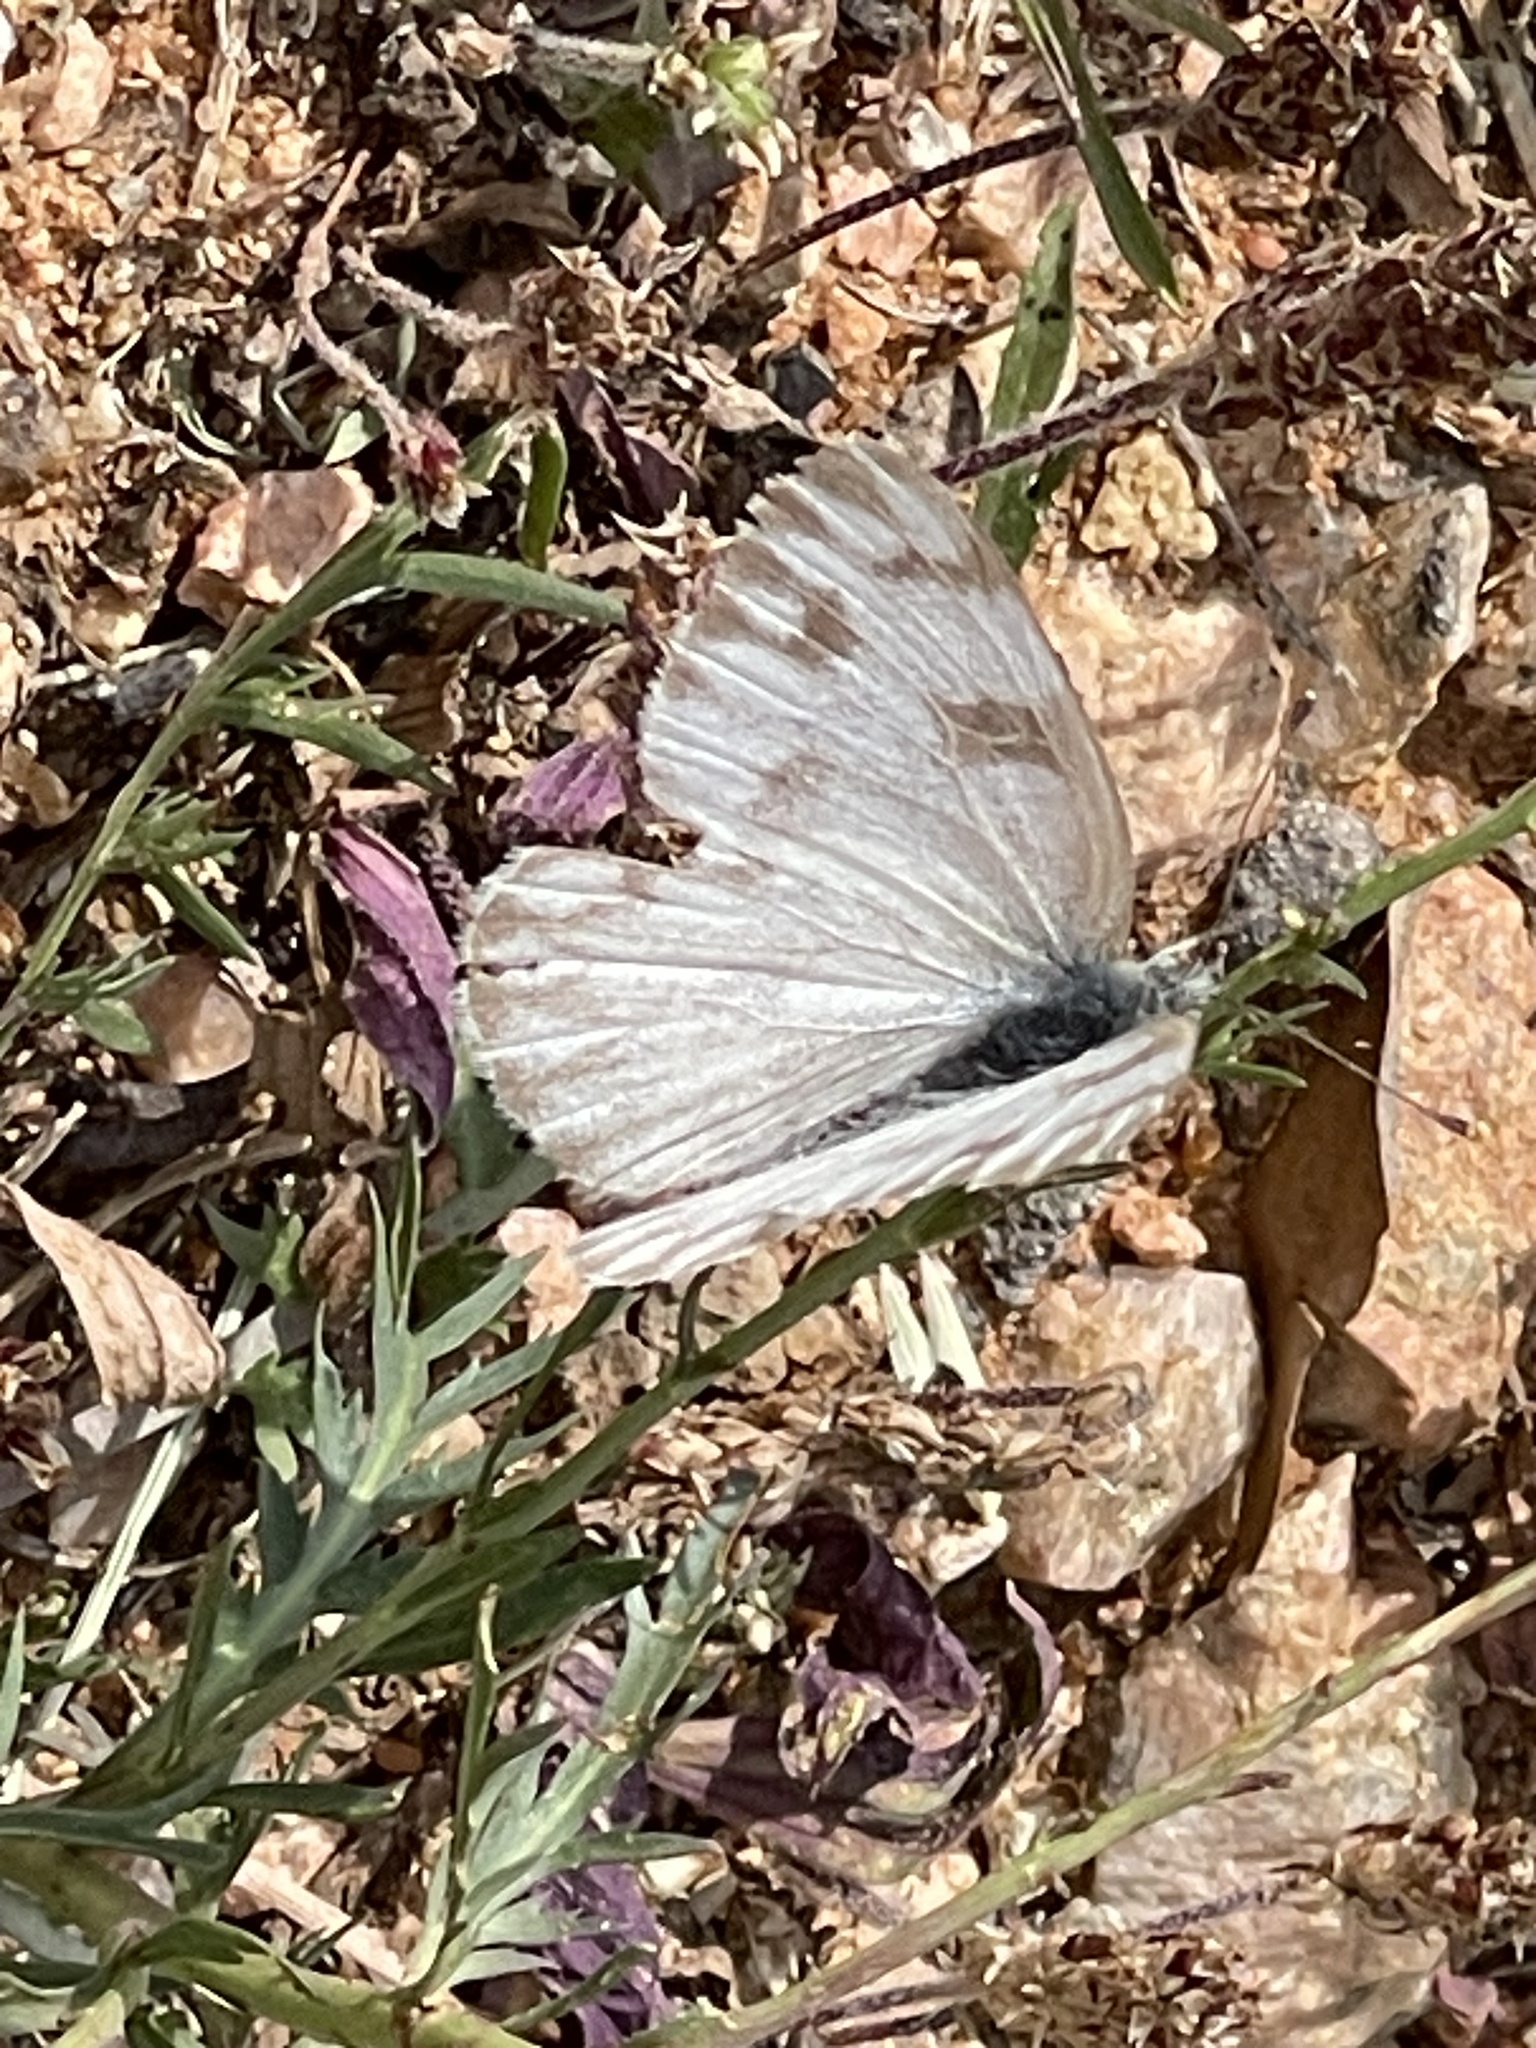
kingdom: Animalia
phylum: Arthropoda
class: Insecta
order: Lepidoptera
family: Pieridae
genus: Pontia
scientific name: Pontia protodice
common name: Checkered white
